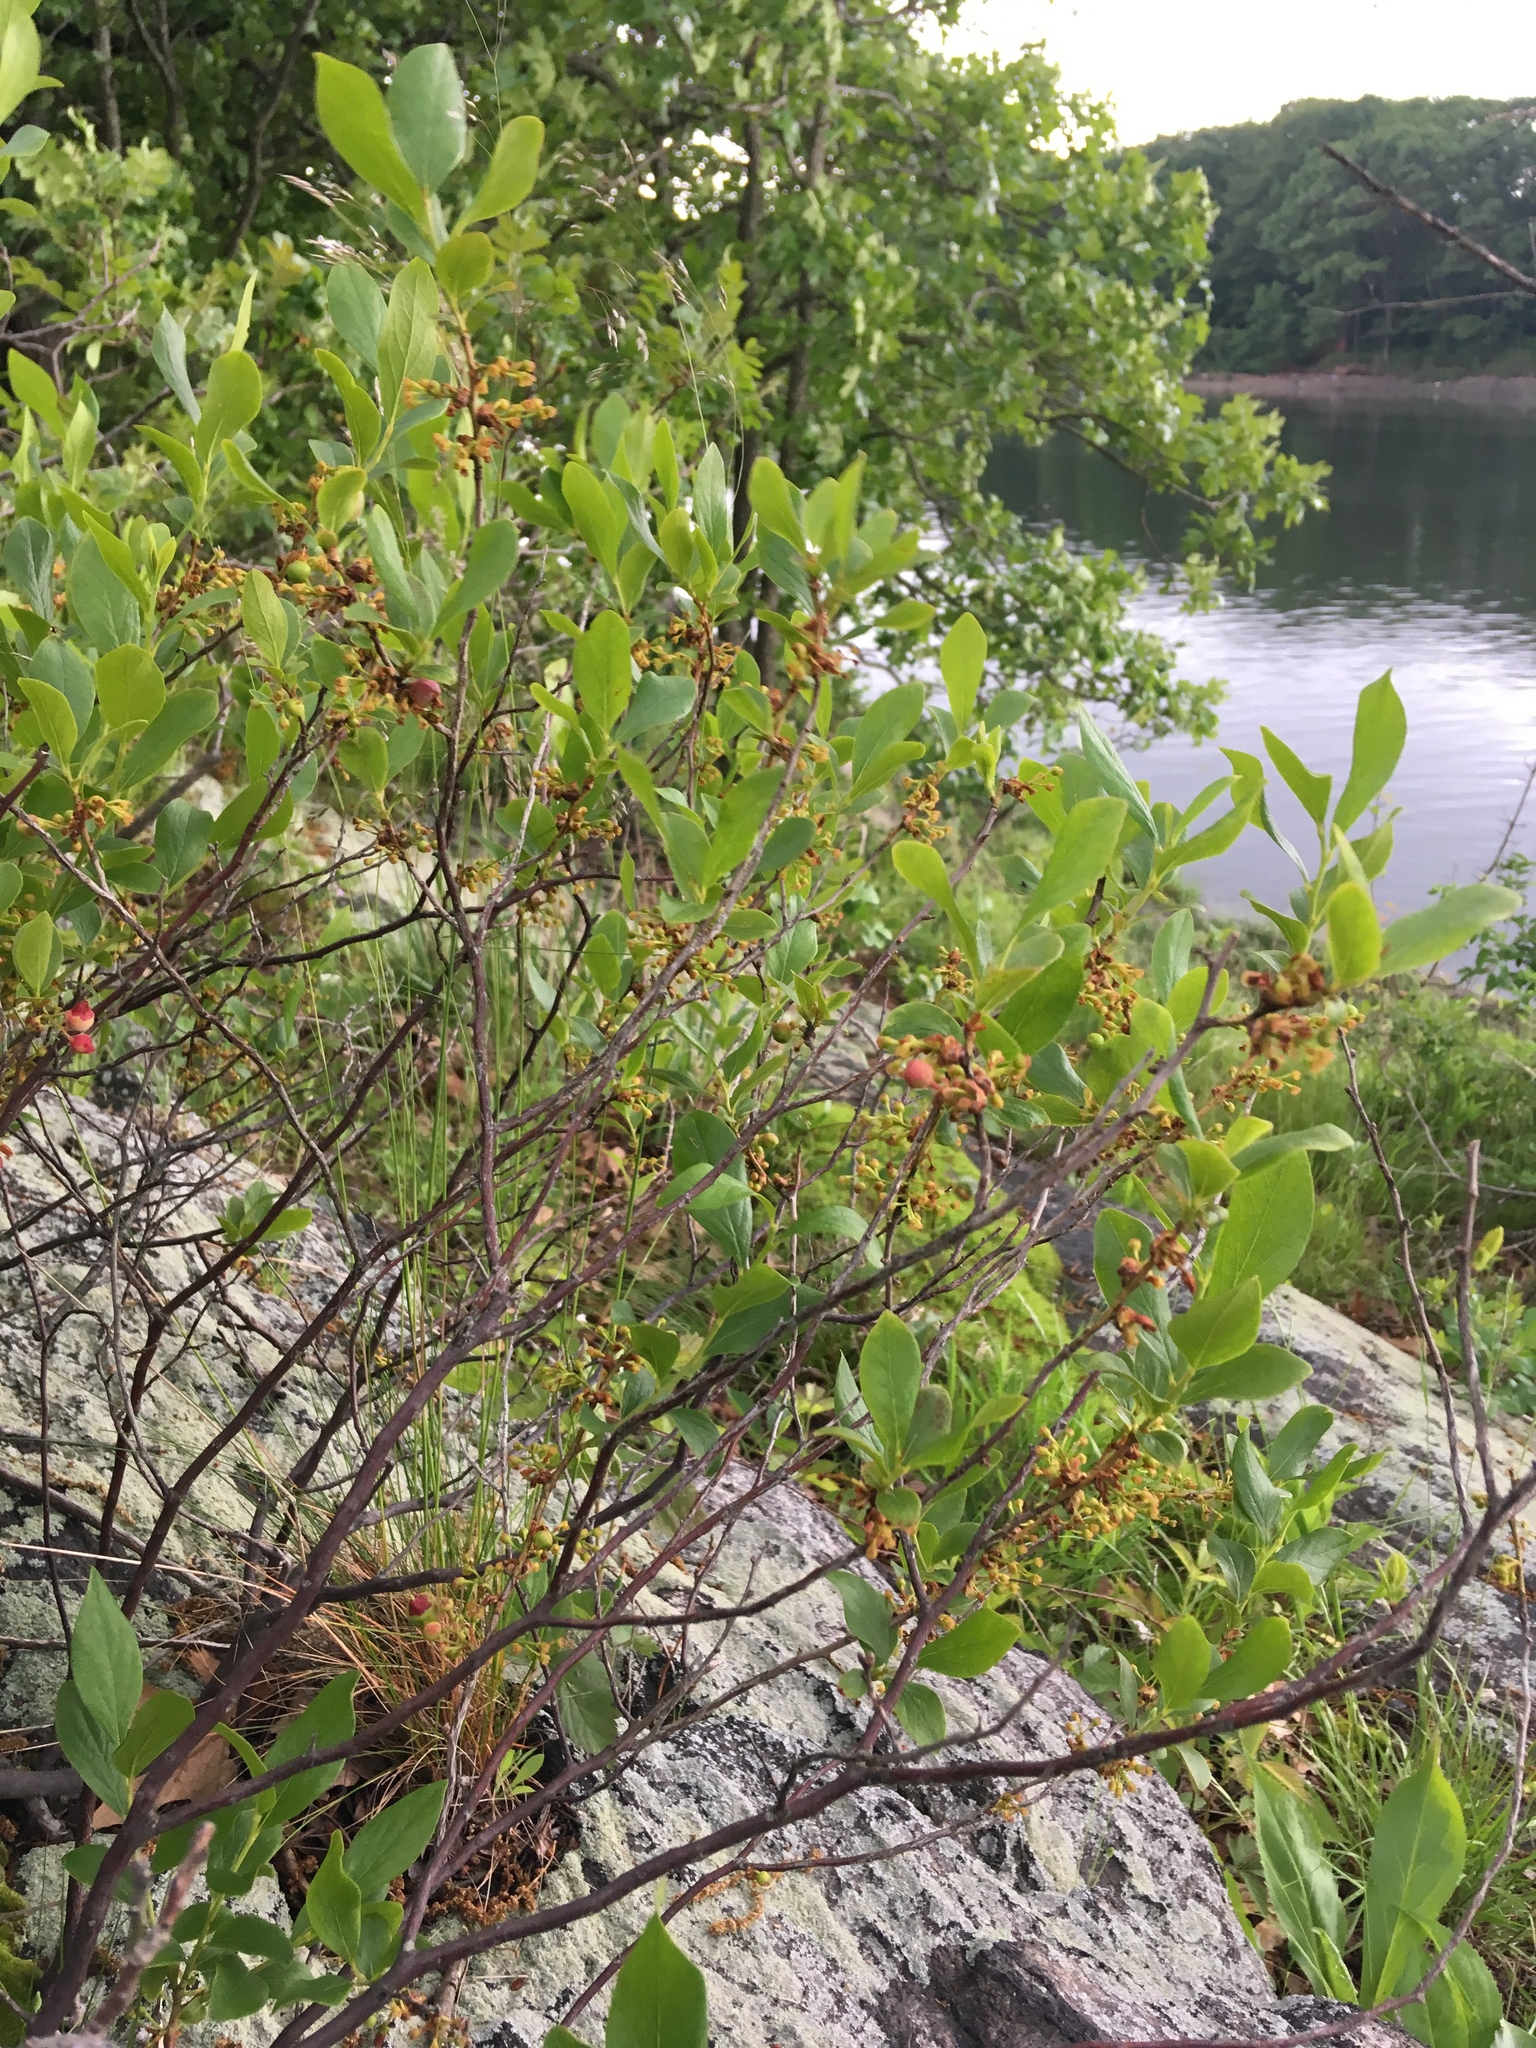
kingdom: Plantae
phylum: Tracheophyta
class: Magnoliopsida
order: Ericales
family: Ericaceae
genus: Gaylussacia
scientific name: Gaylussacia baccata
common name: Black huckleberry
